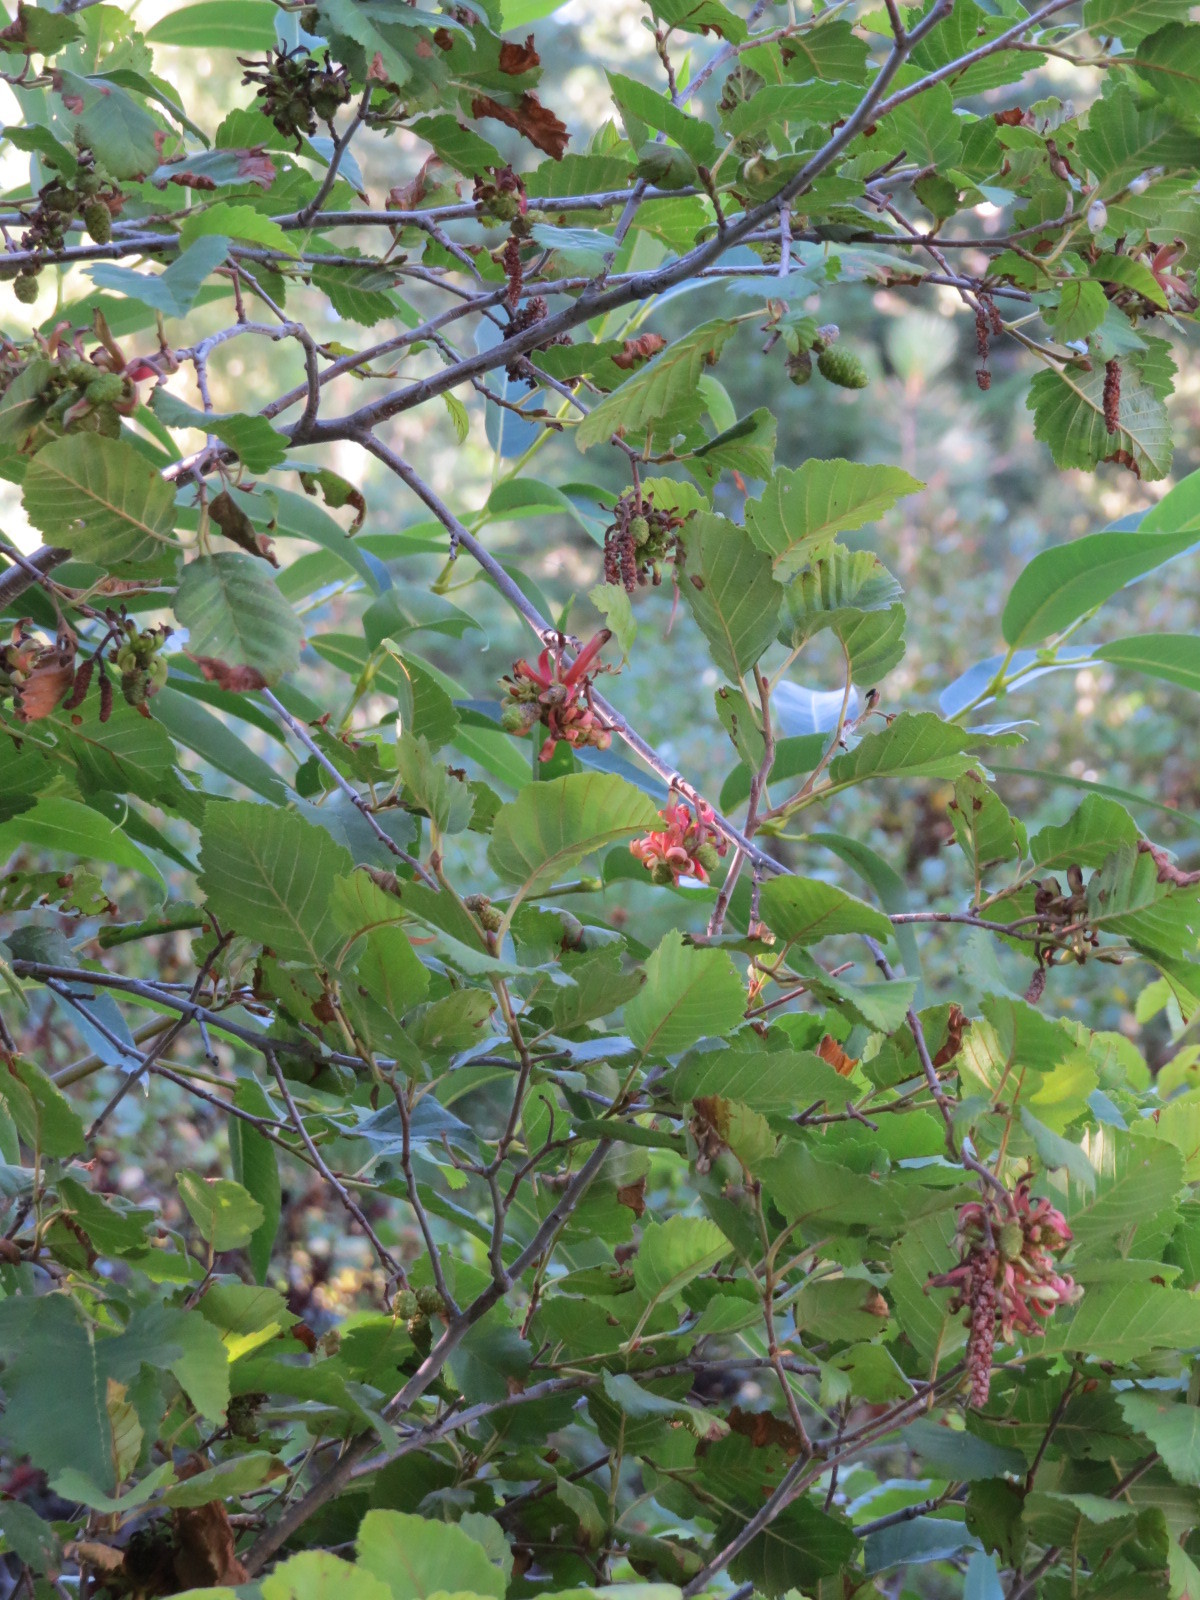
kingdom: Fungi
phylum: Ascomycota
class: Taphrinomycetes
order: Taphrinales
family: Taphrinaceae
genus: Taphrina
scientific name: Taphrina occidentalis
